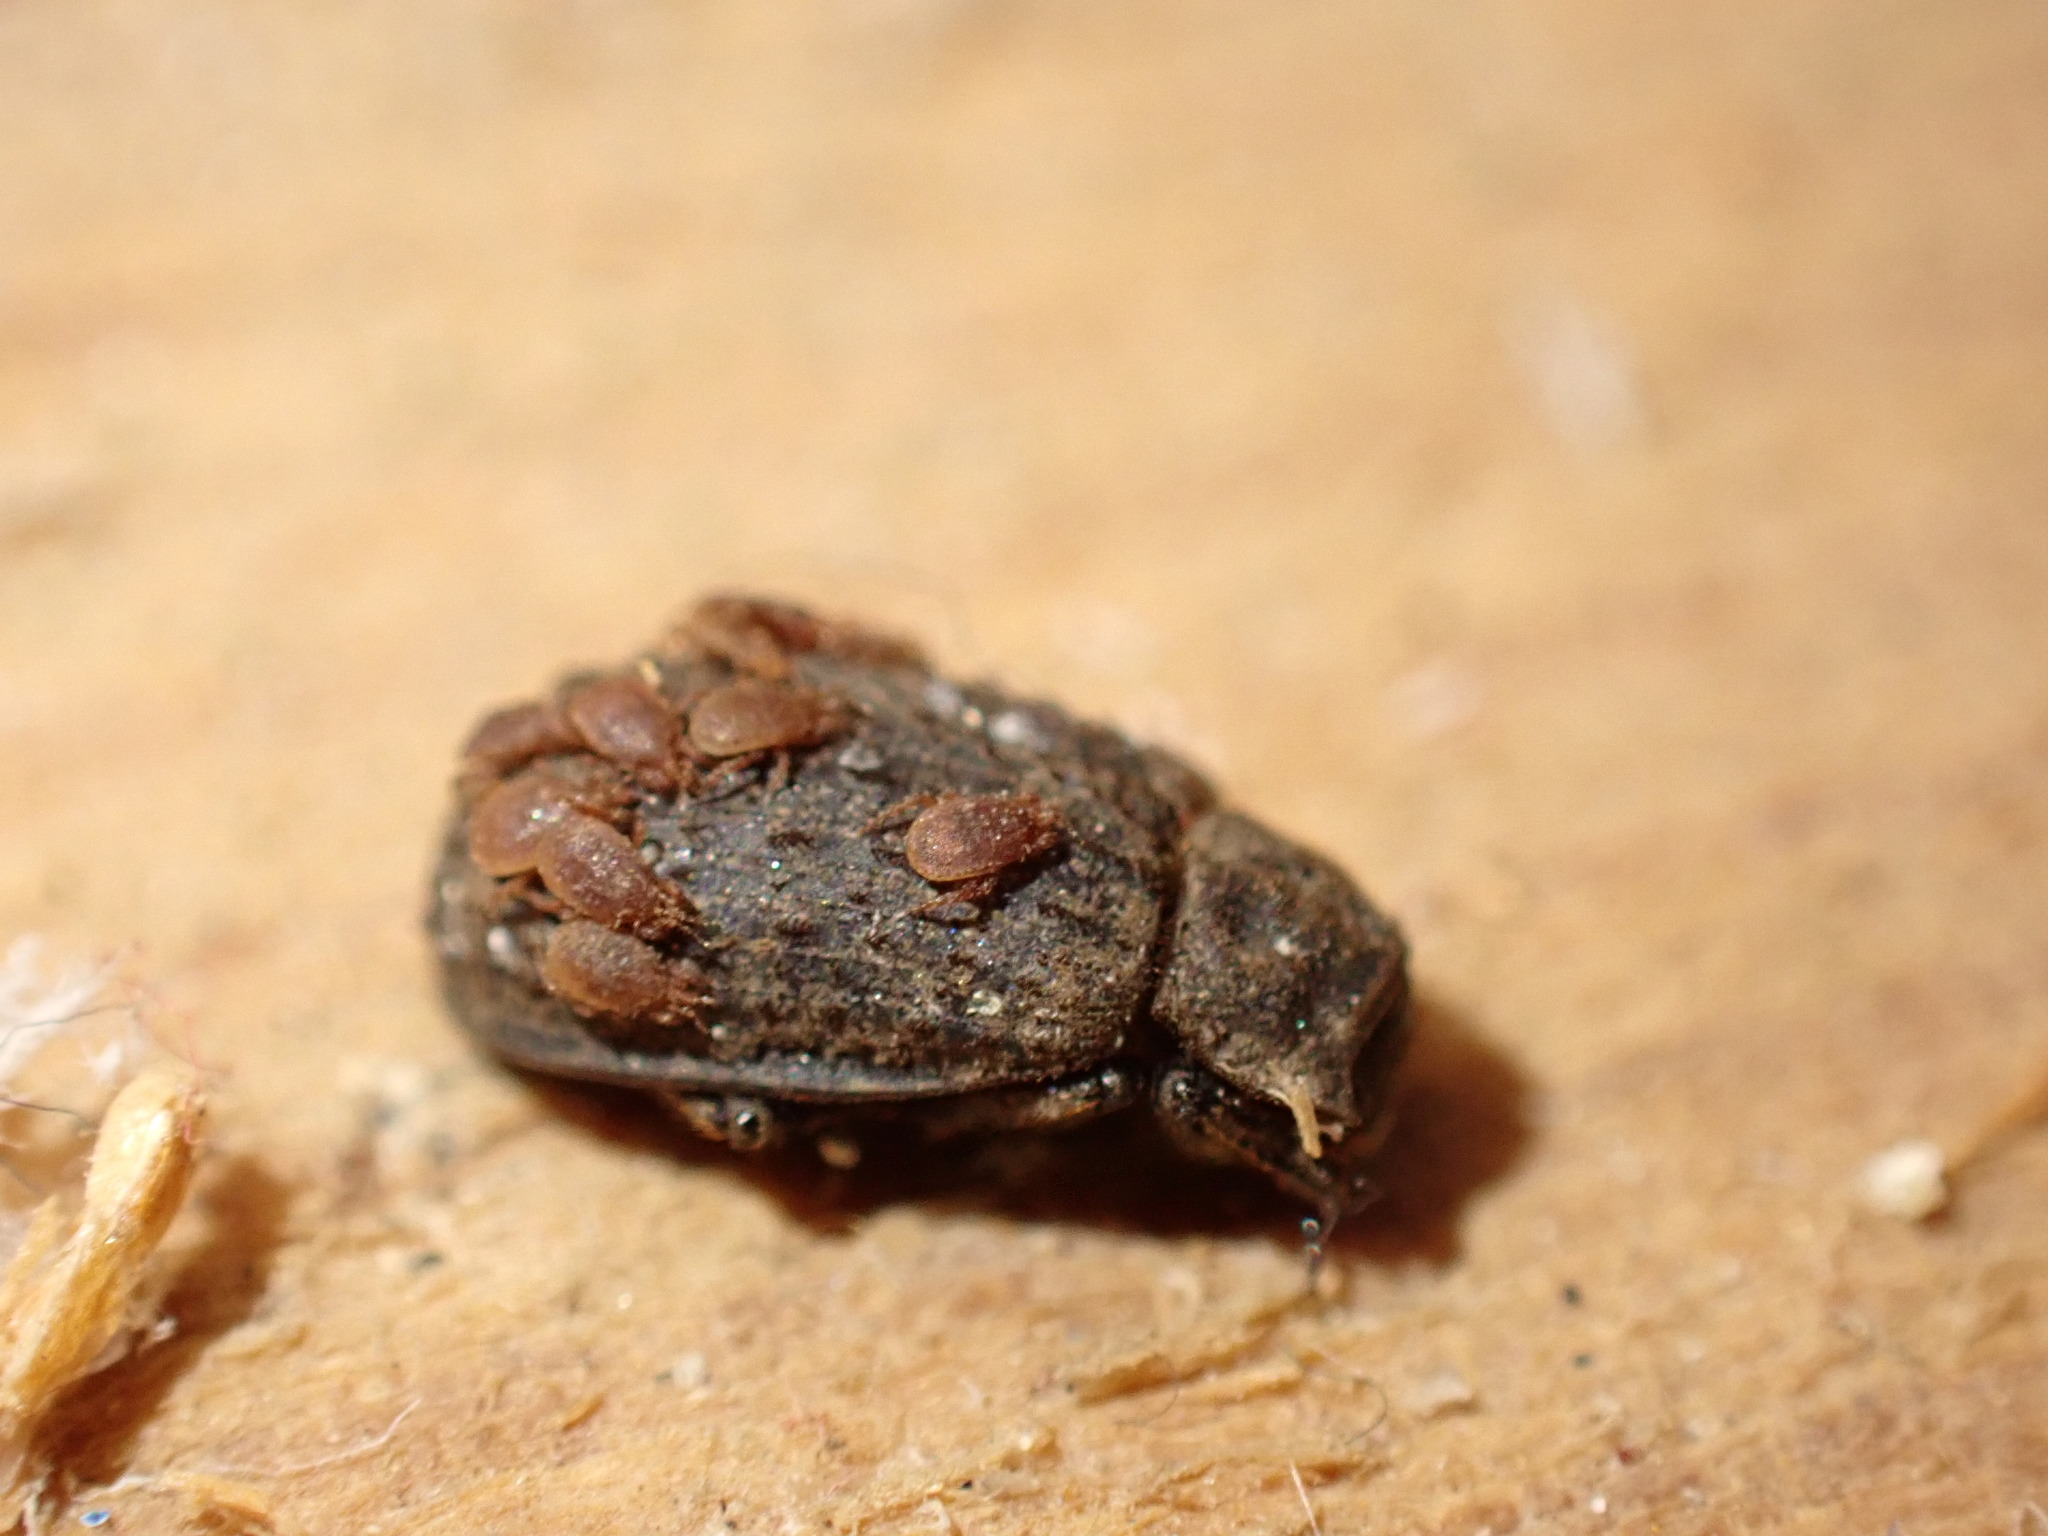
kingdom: Animalia
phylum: Arthropoda
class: Insecta
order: Coleoptera
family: Trogidae
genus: Trox
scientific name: Trox scaber
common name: Hide beetle
